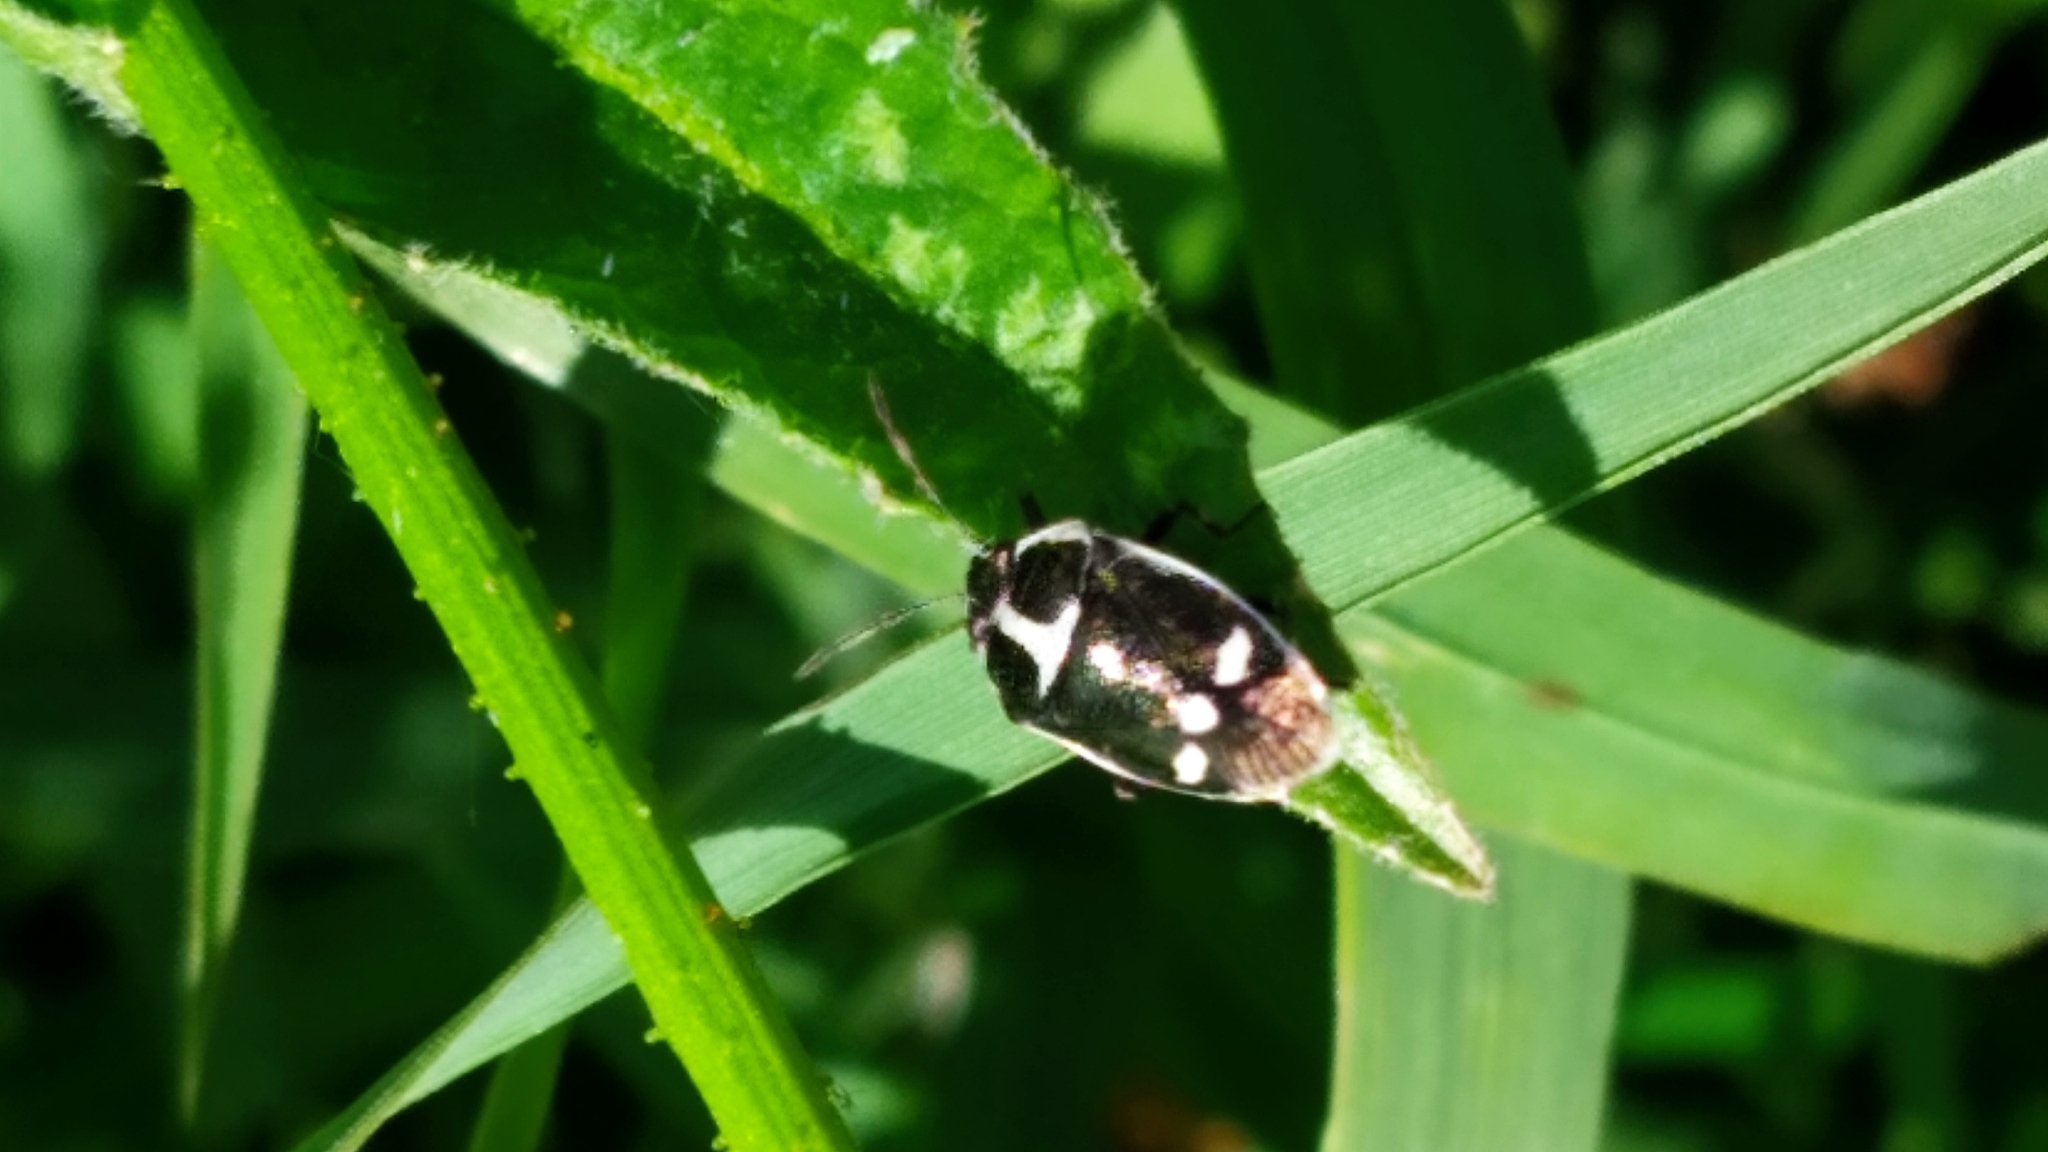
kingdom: Animalia
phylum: Arthropoda
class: Insecta
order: Hemiptera
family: Pentatomidae
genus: Eurydema
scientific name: Eurydema oleracea
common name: Cabbage bug
